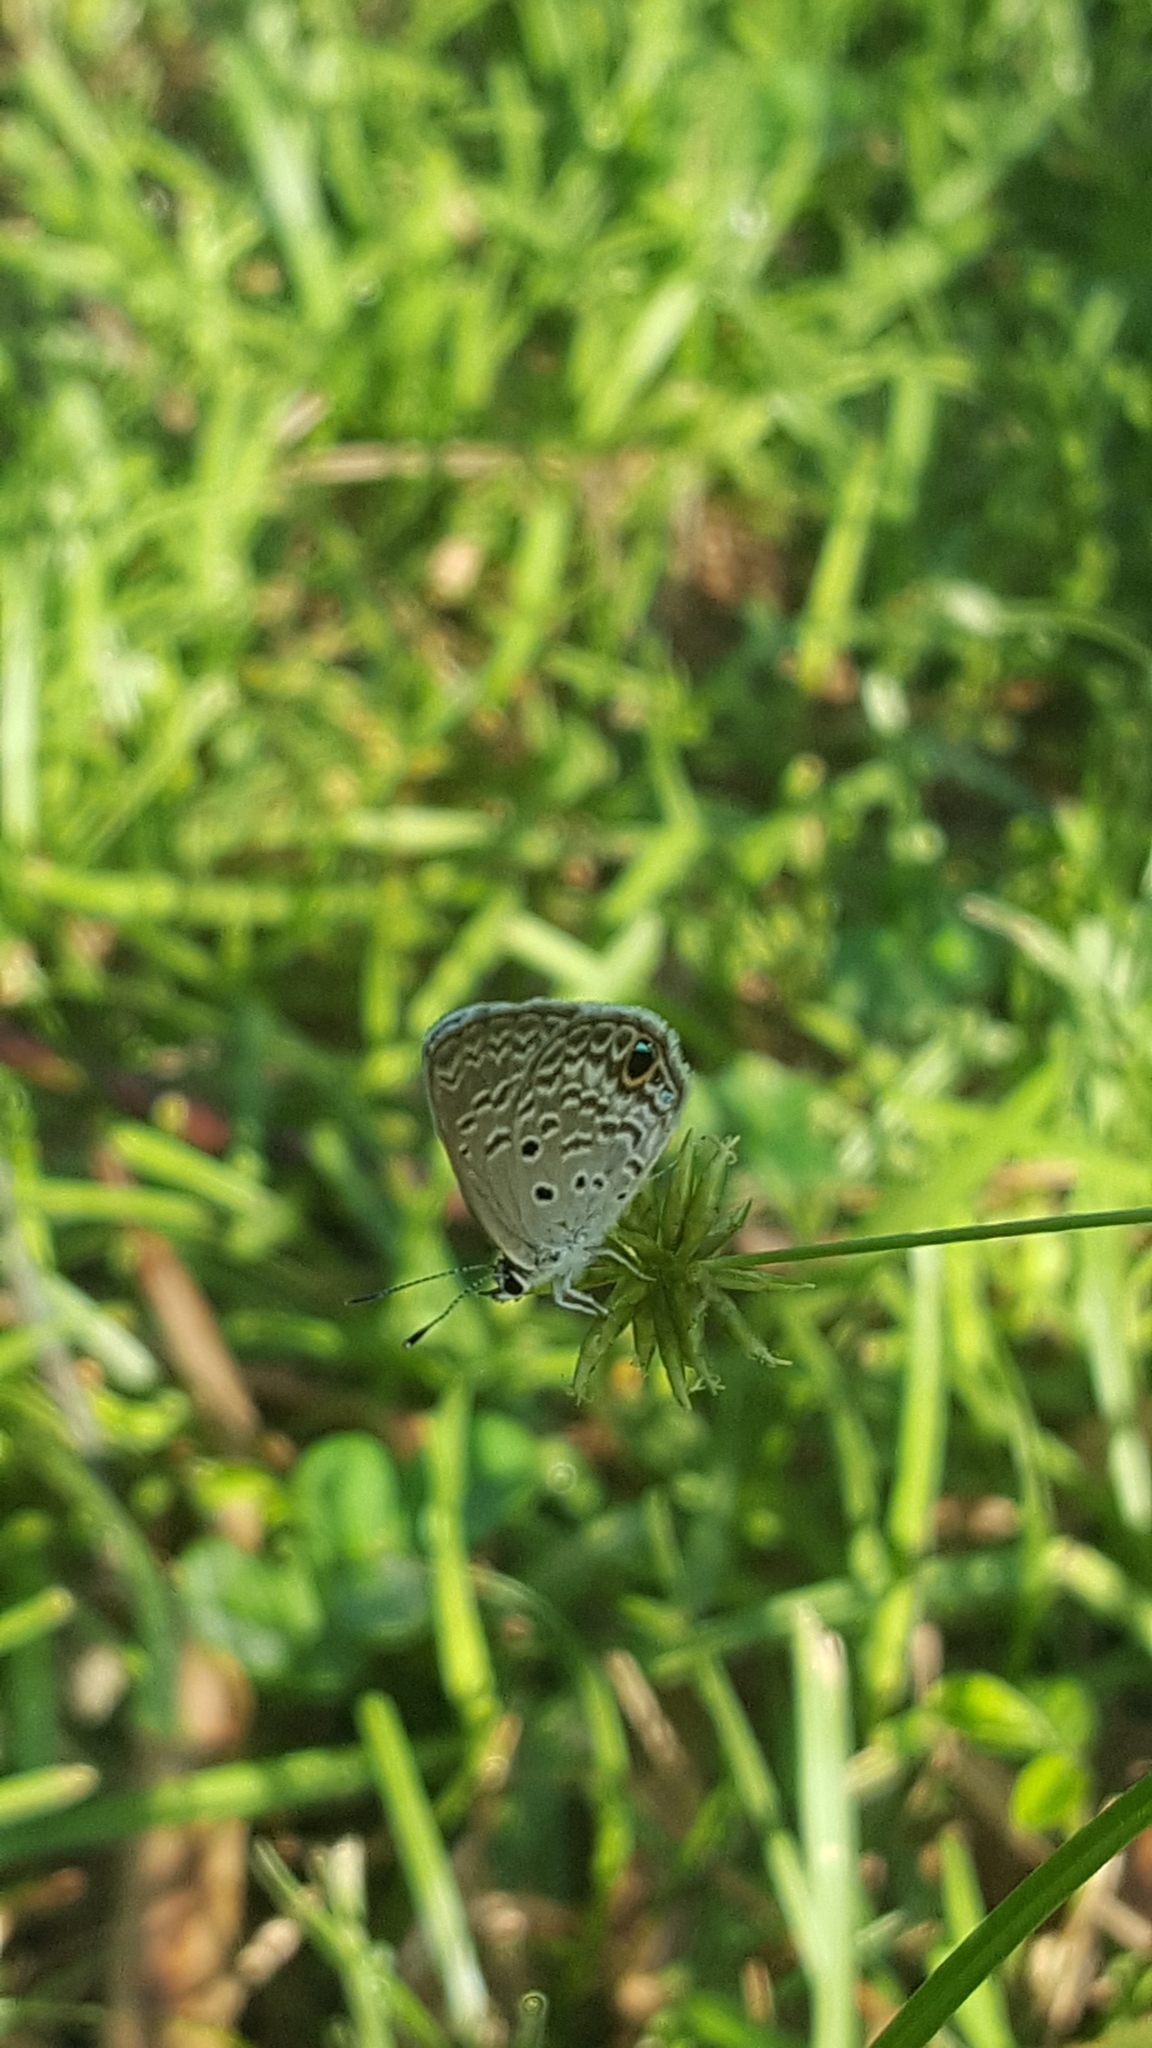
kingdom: Animalia
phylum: Arthropoda
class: Insecta
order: Lepidoptera
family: Lycaenidae
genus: Hemiargus
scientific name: Hemiargus ceraunus
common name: Ceraunus blue
